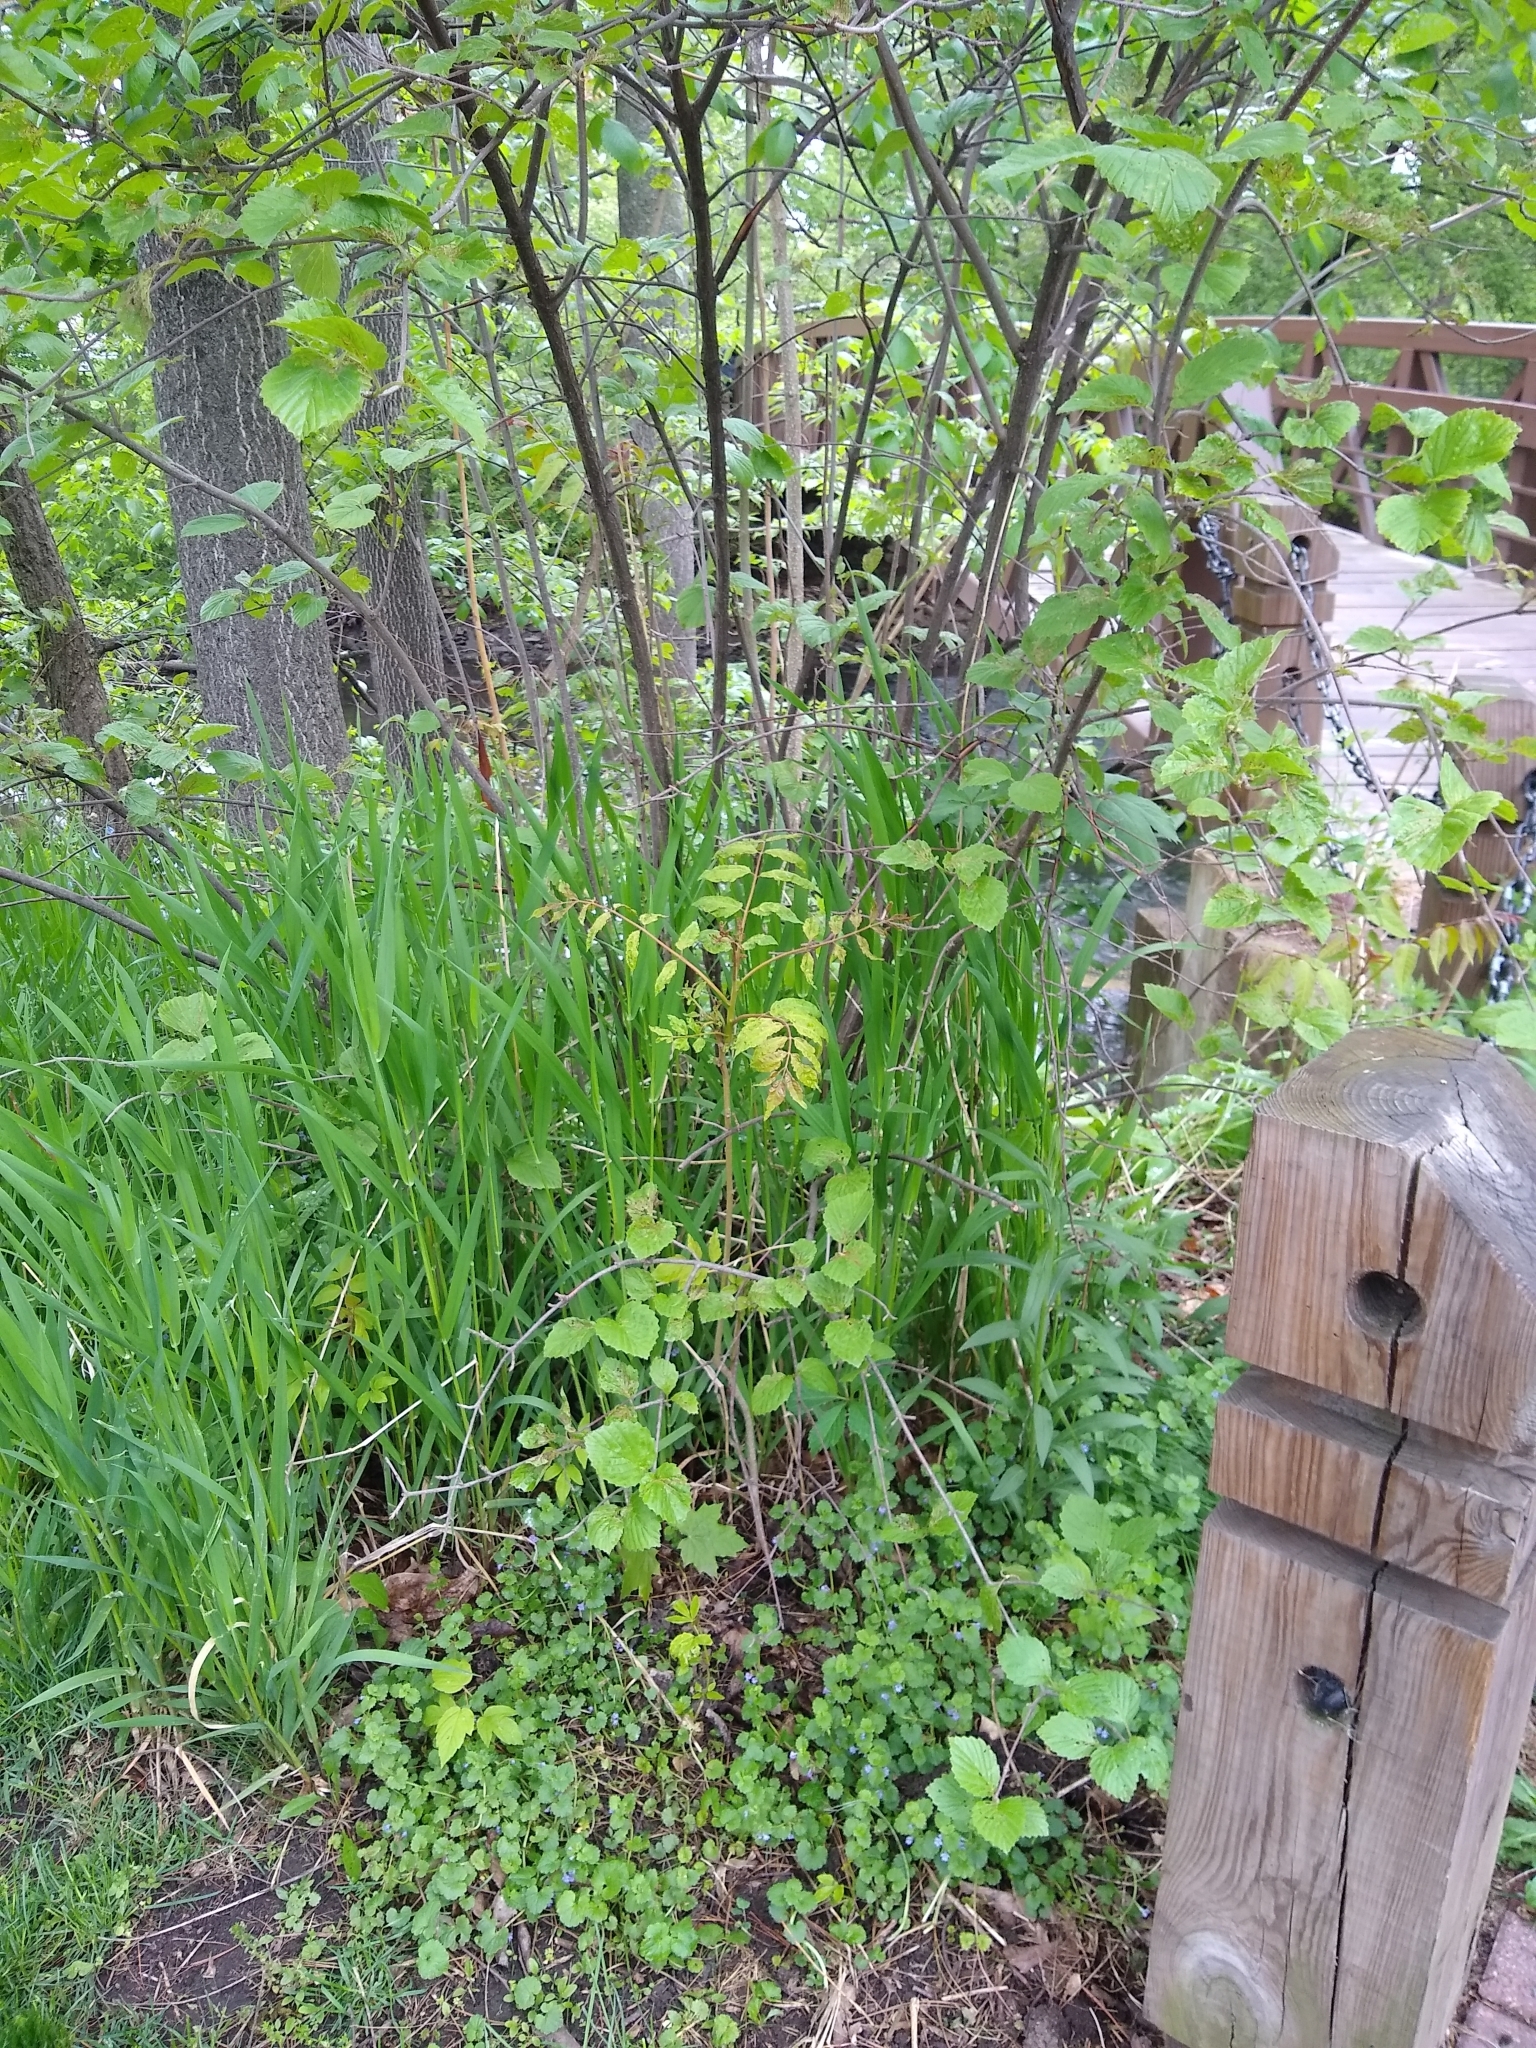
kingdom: Plantae
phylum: Tracheophyta
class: Magnoliopsida
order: Sapindales
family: Simaroubaceae
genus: Ailanthus
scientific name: Ailanthus altissima
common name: Tree-of-heaven
